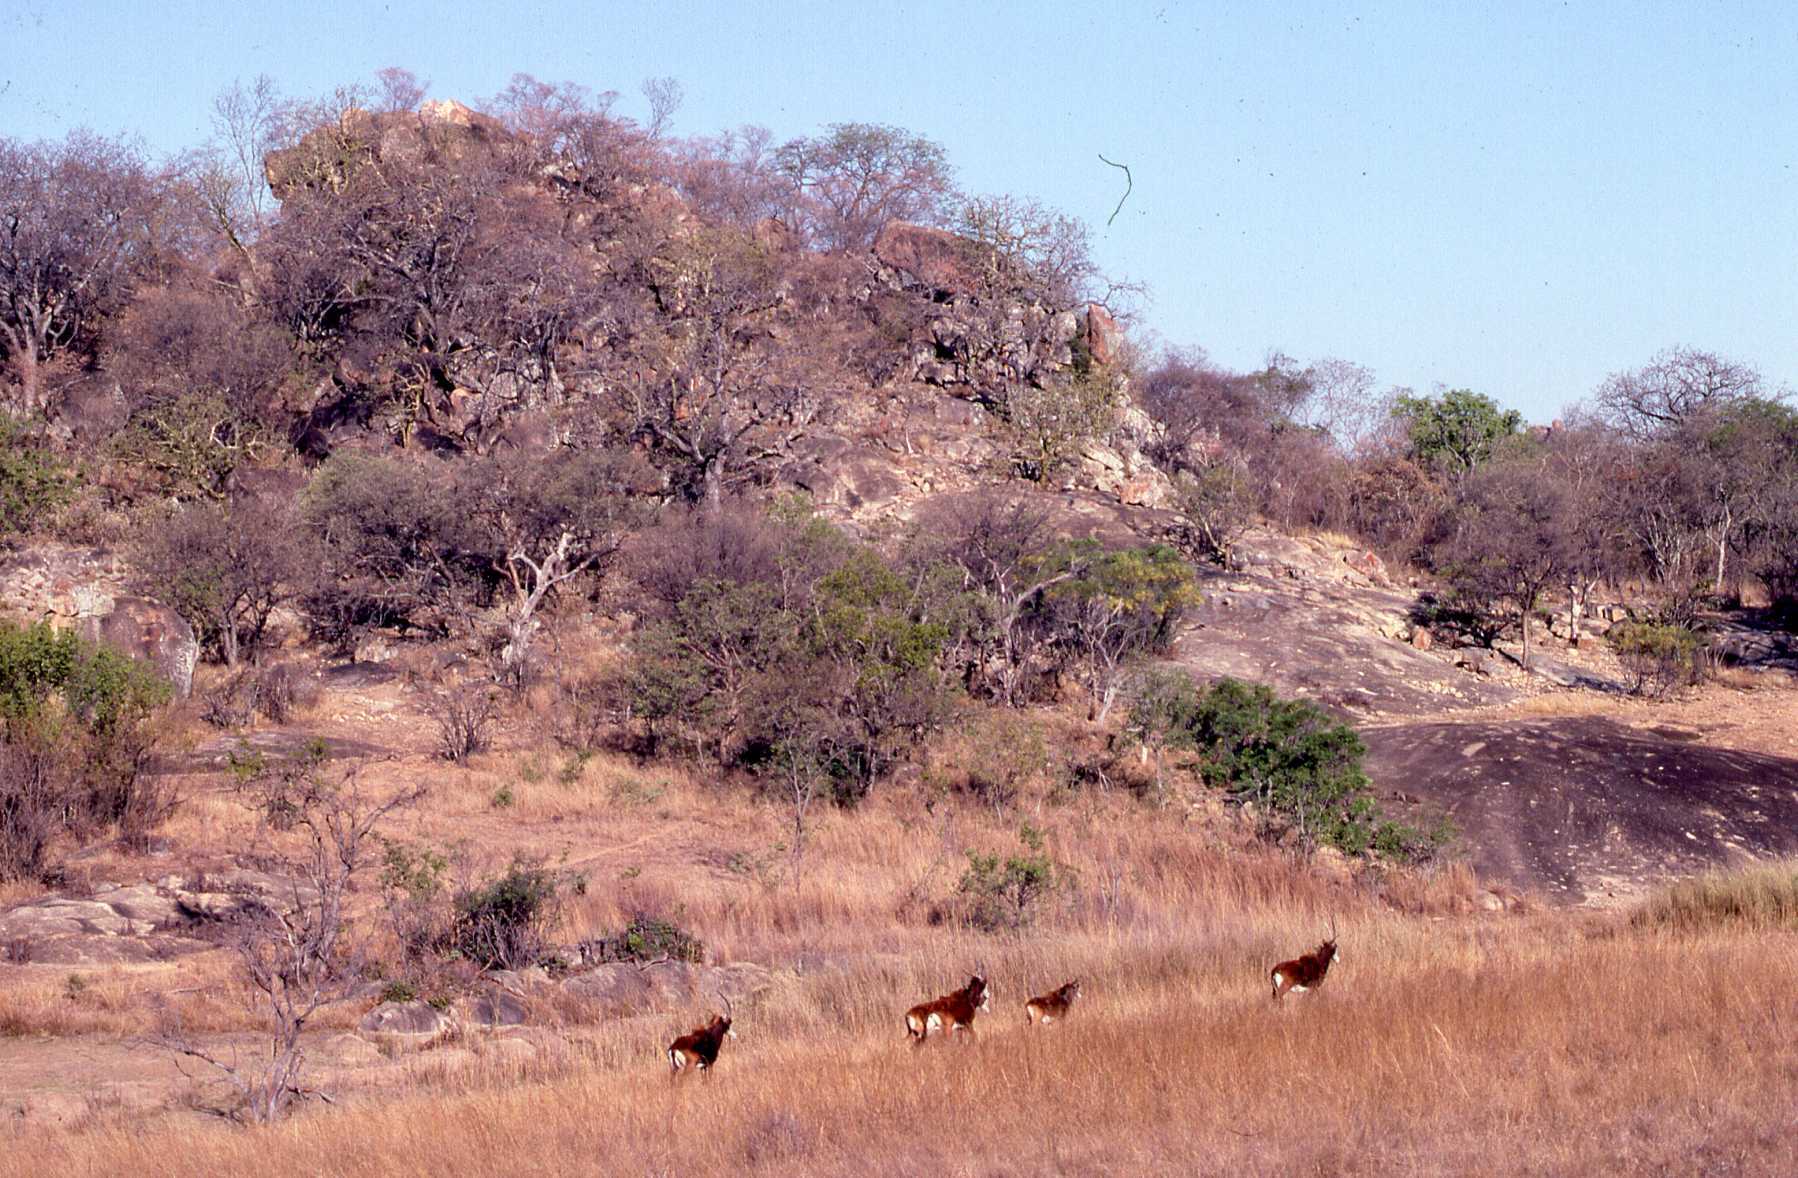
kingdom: Animalia
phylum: Chordata
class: Mammalia
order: Artiodactyla
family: Bovidae
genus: Hippotragus
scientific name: Hippotragus niger
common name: Sable antelope
